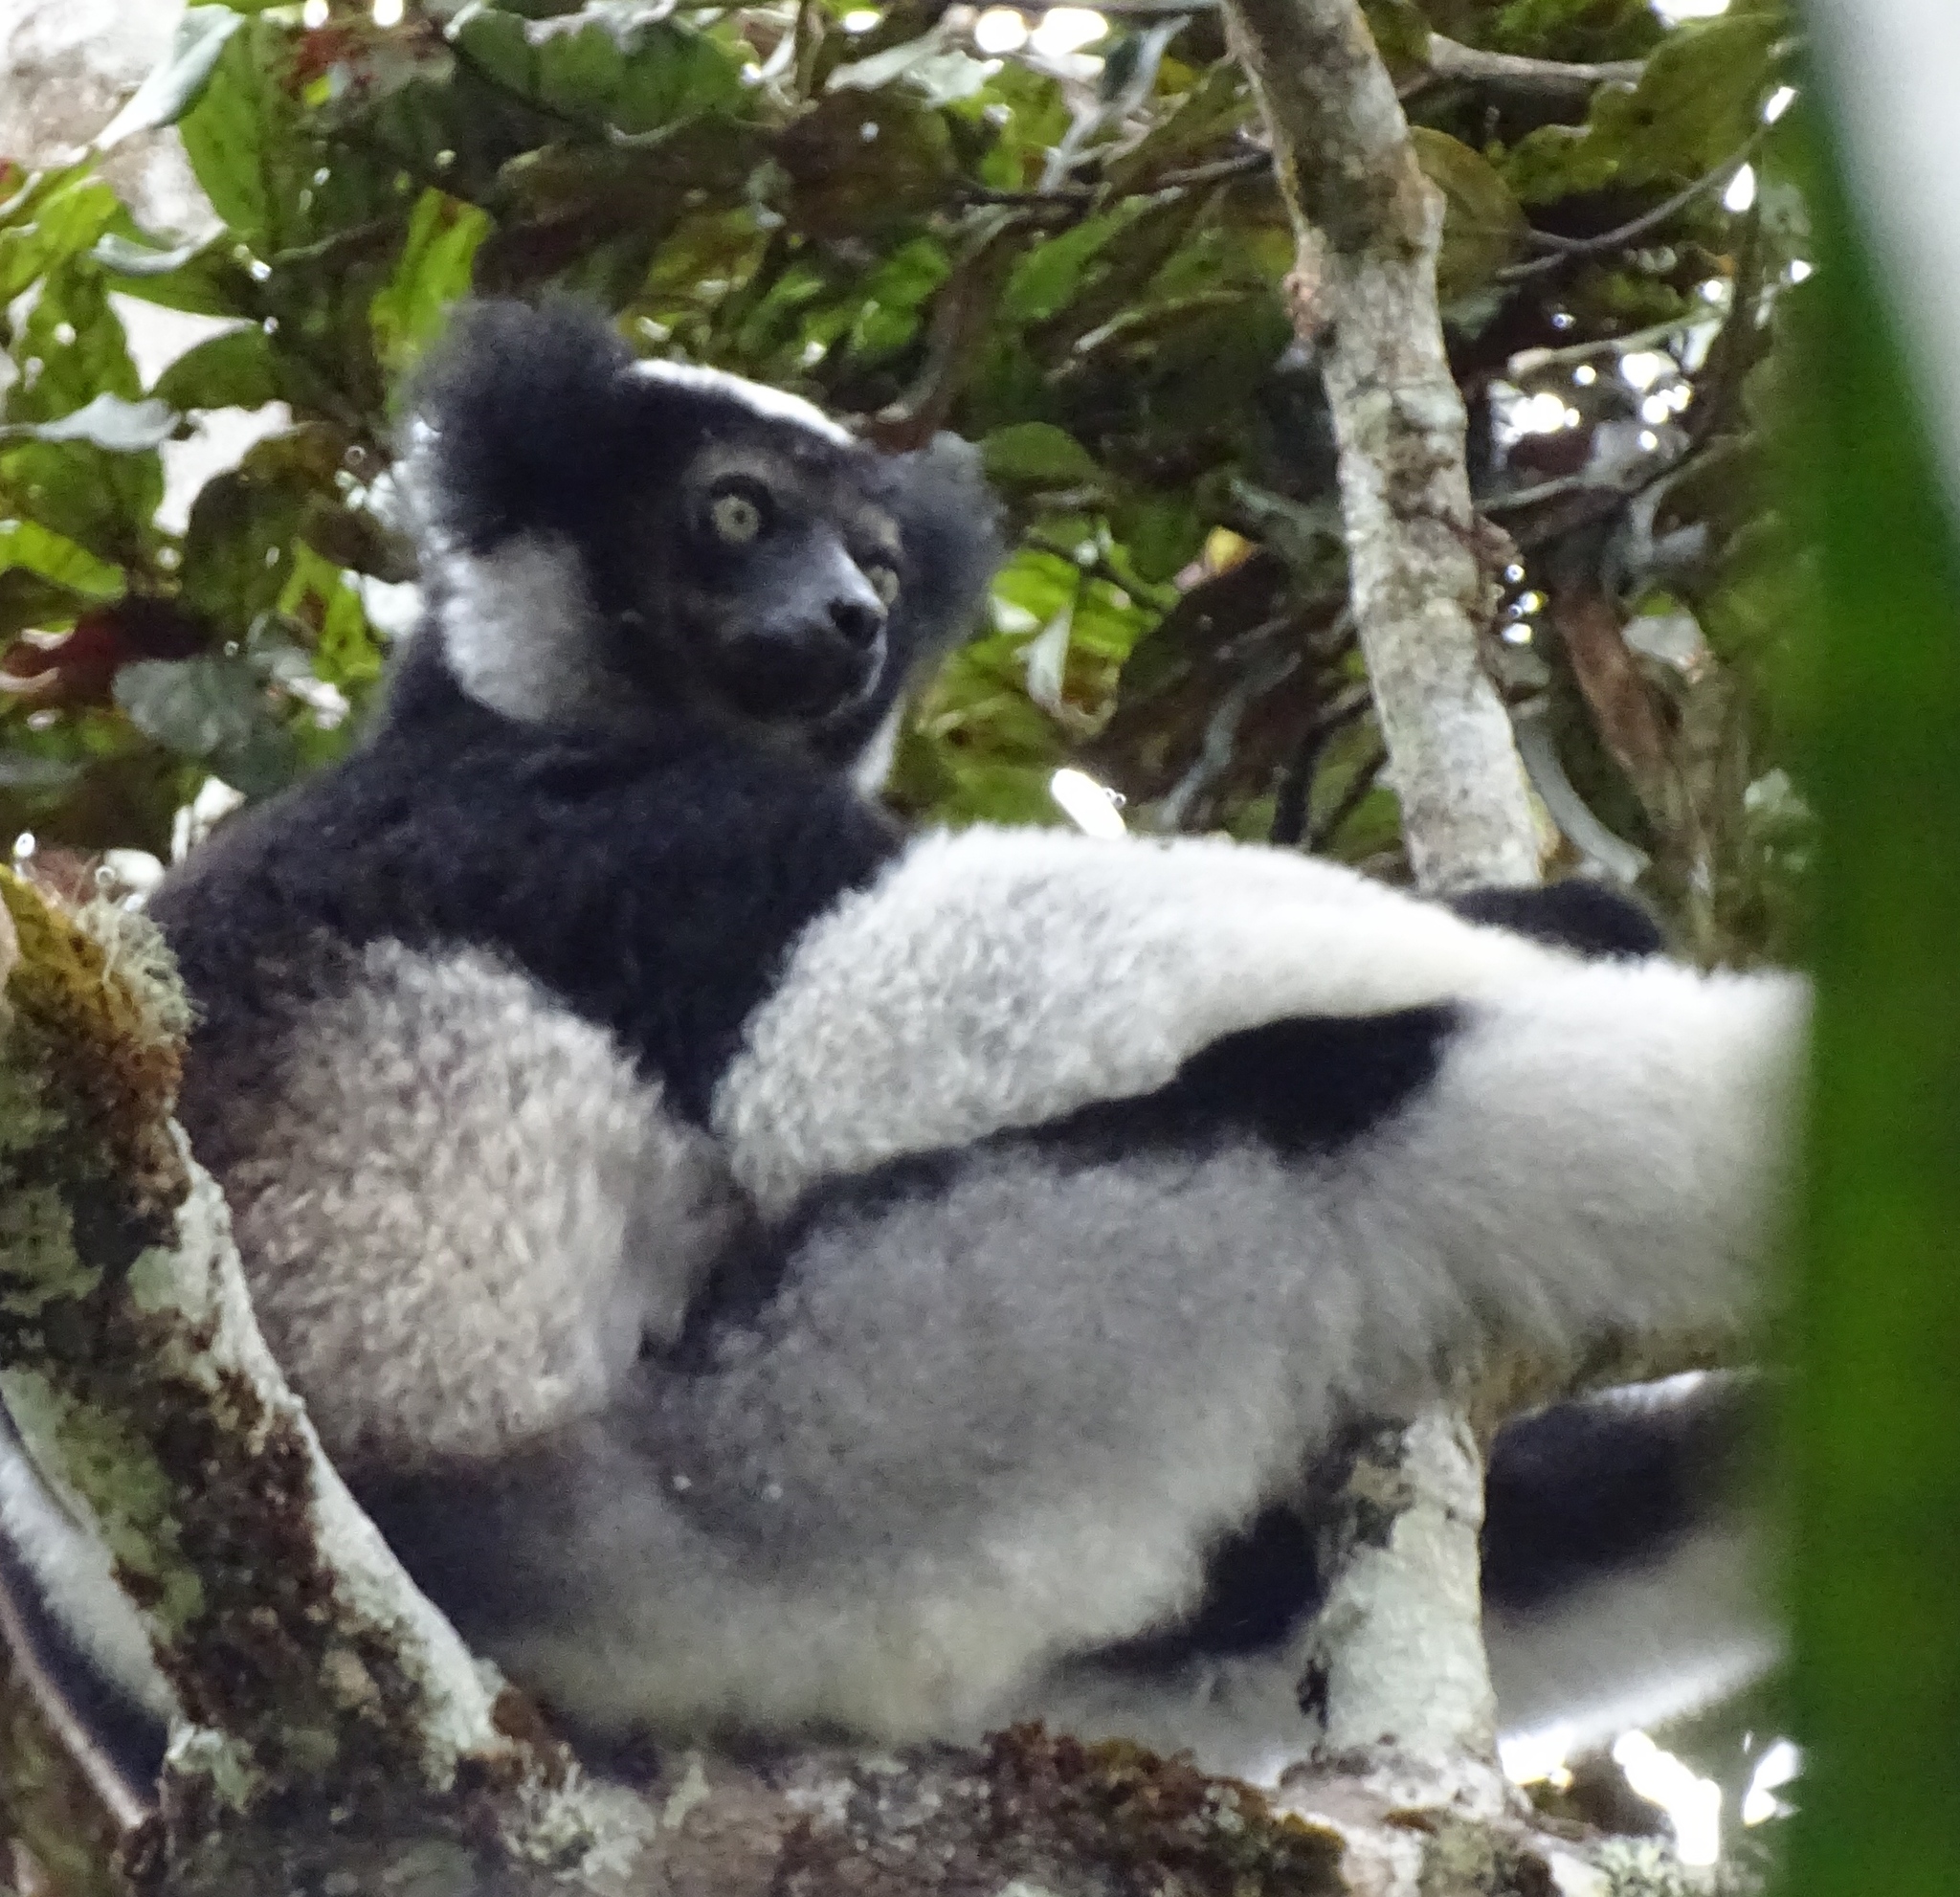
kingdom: Animalia
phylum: Chordata
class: Mammalia
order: Primates
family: Indriidae
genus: Indri
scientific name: Indri indri
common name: Indri
